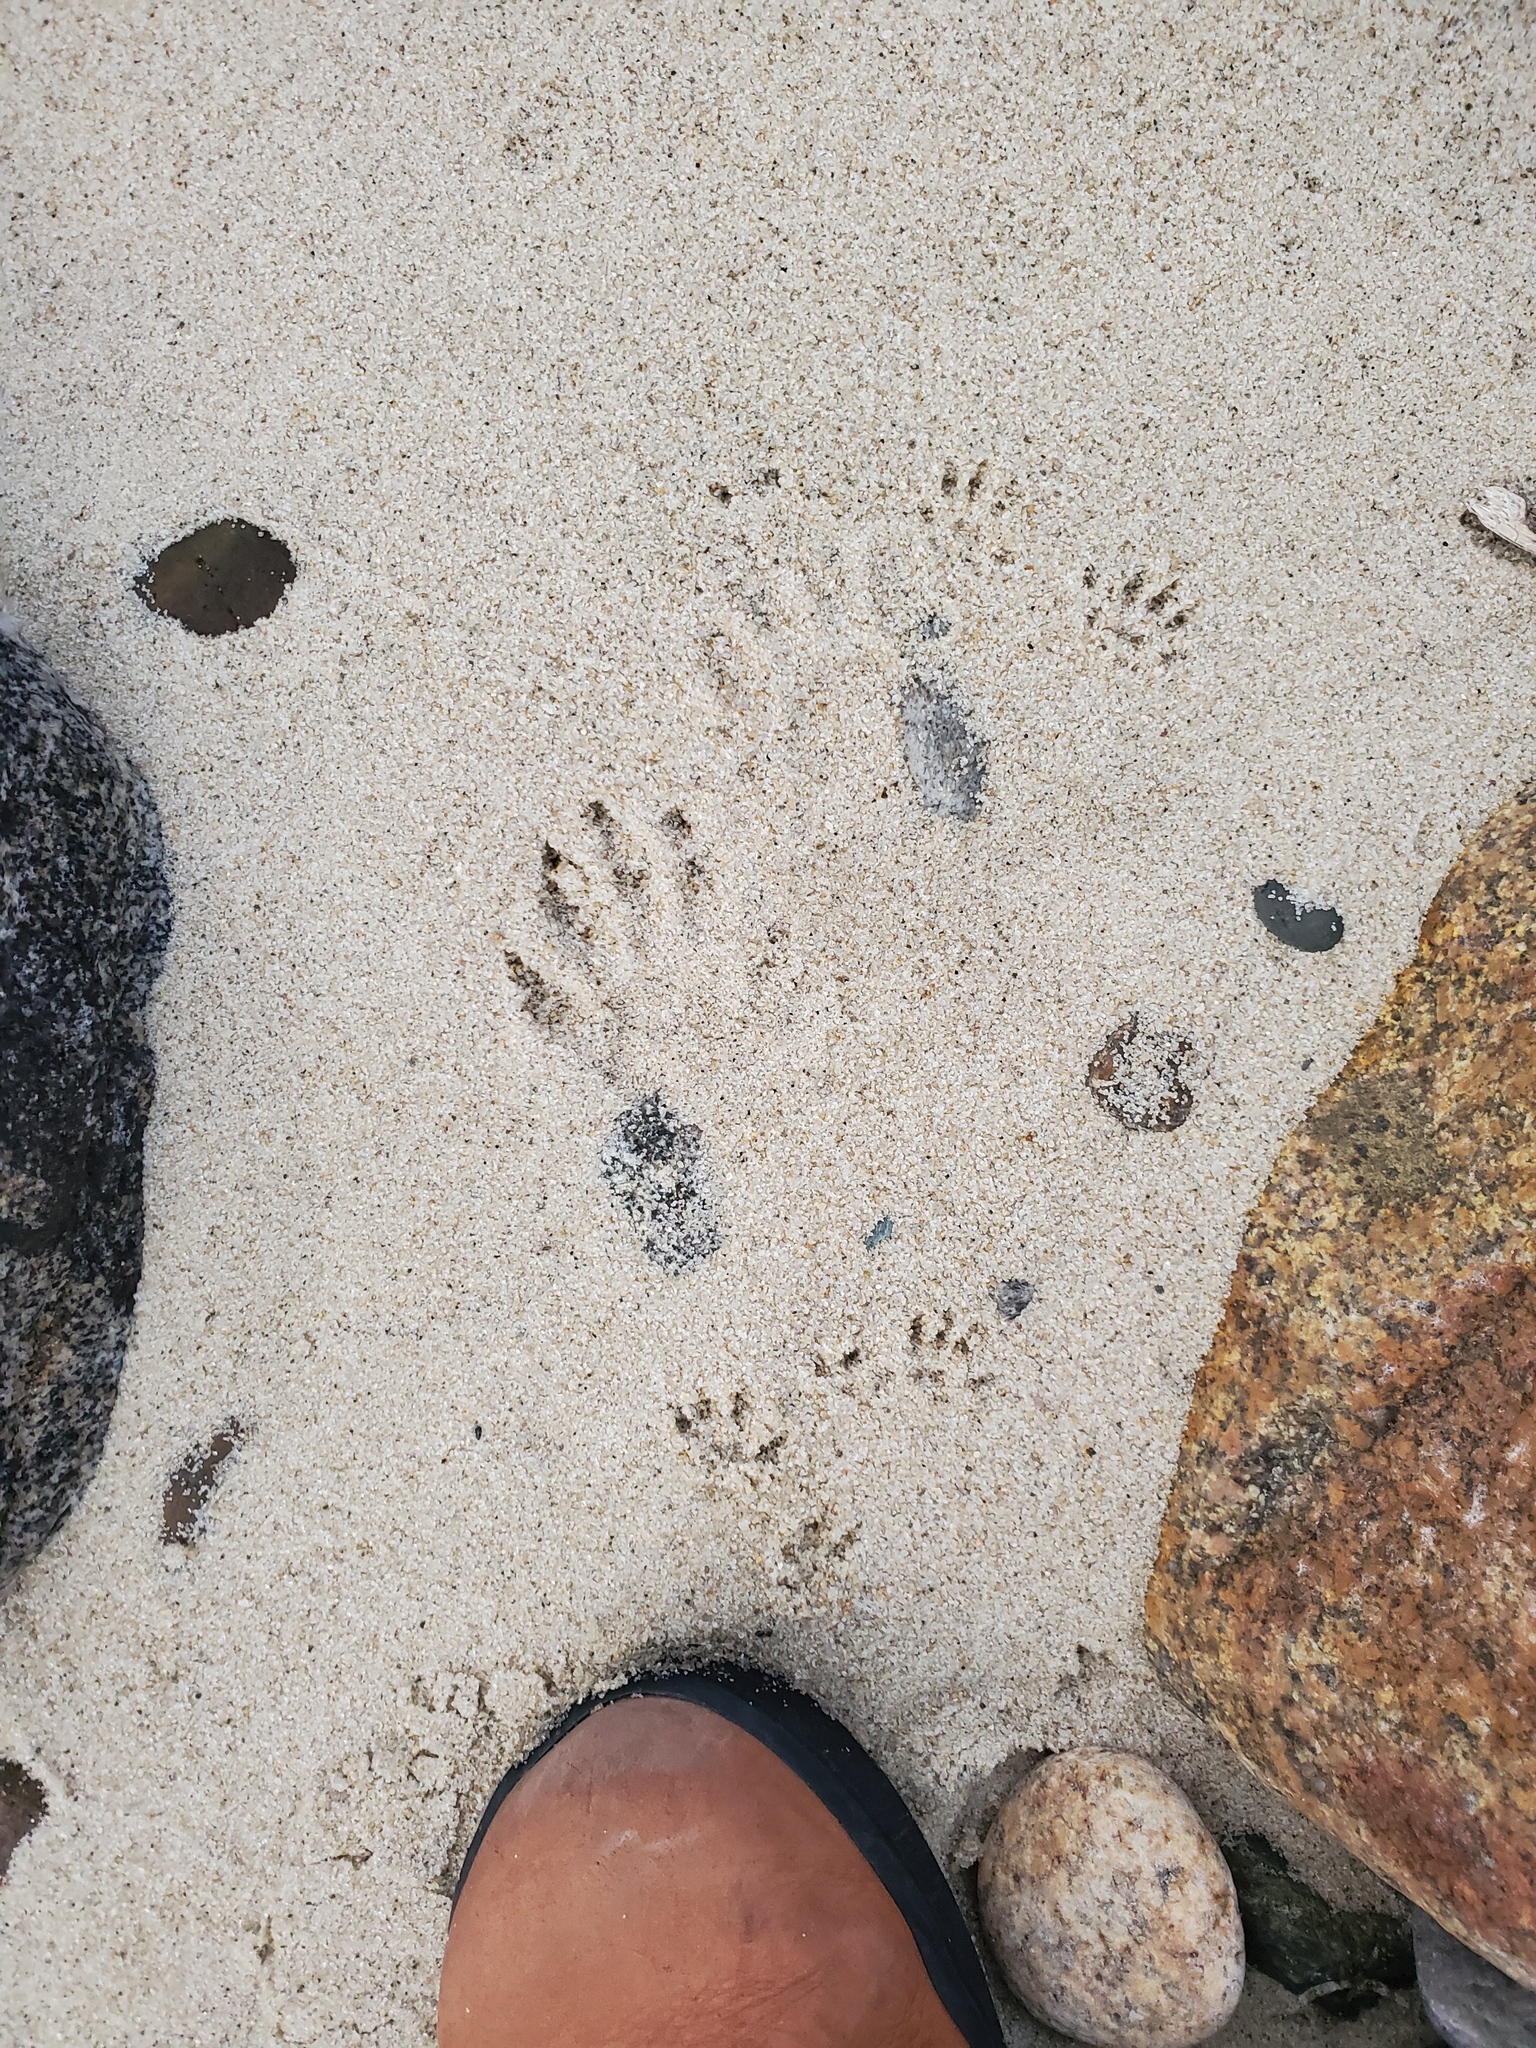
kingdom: Animalia
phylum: Chordata
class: Mammalia
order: Carnivora
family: Procyonidae
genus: Procyon
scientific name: Procyon lotor
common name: Raccoon
